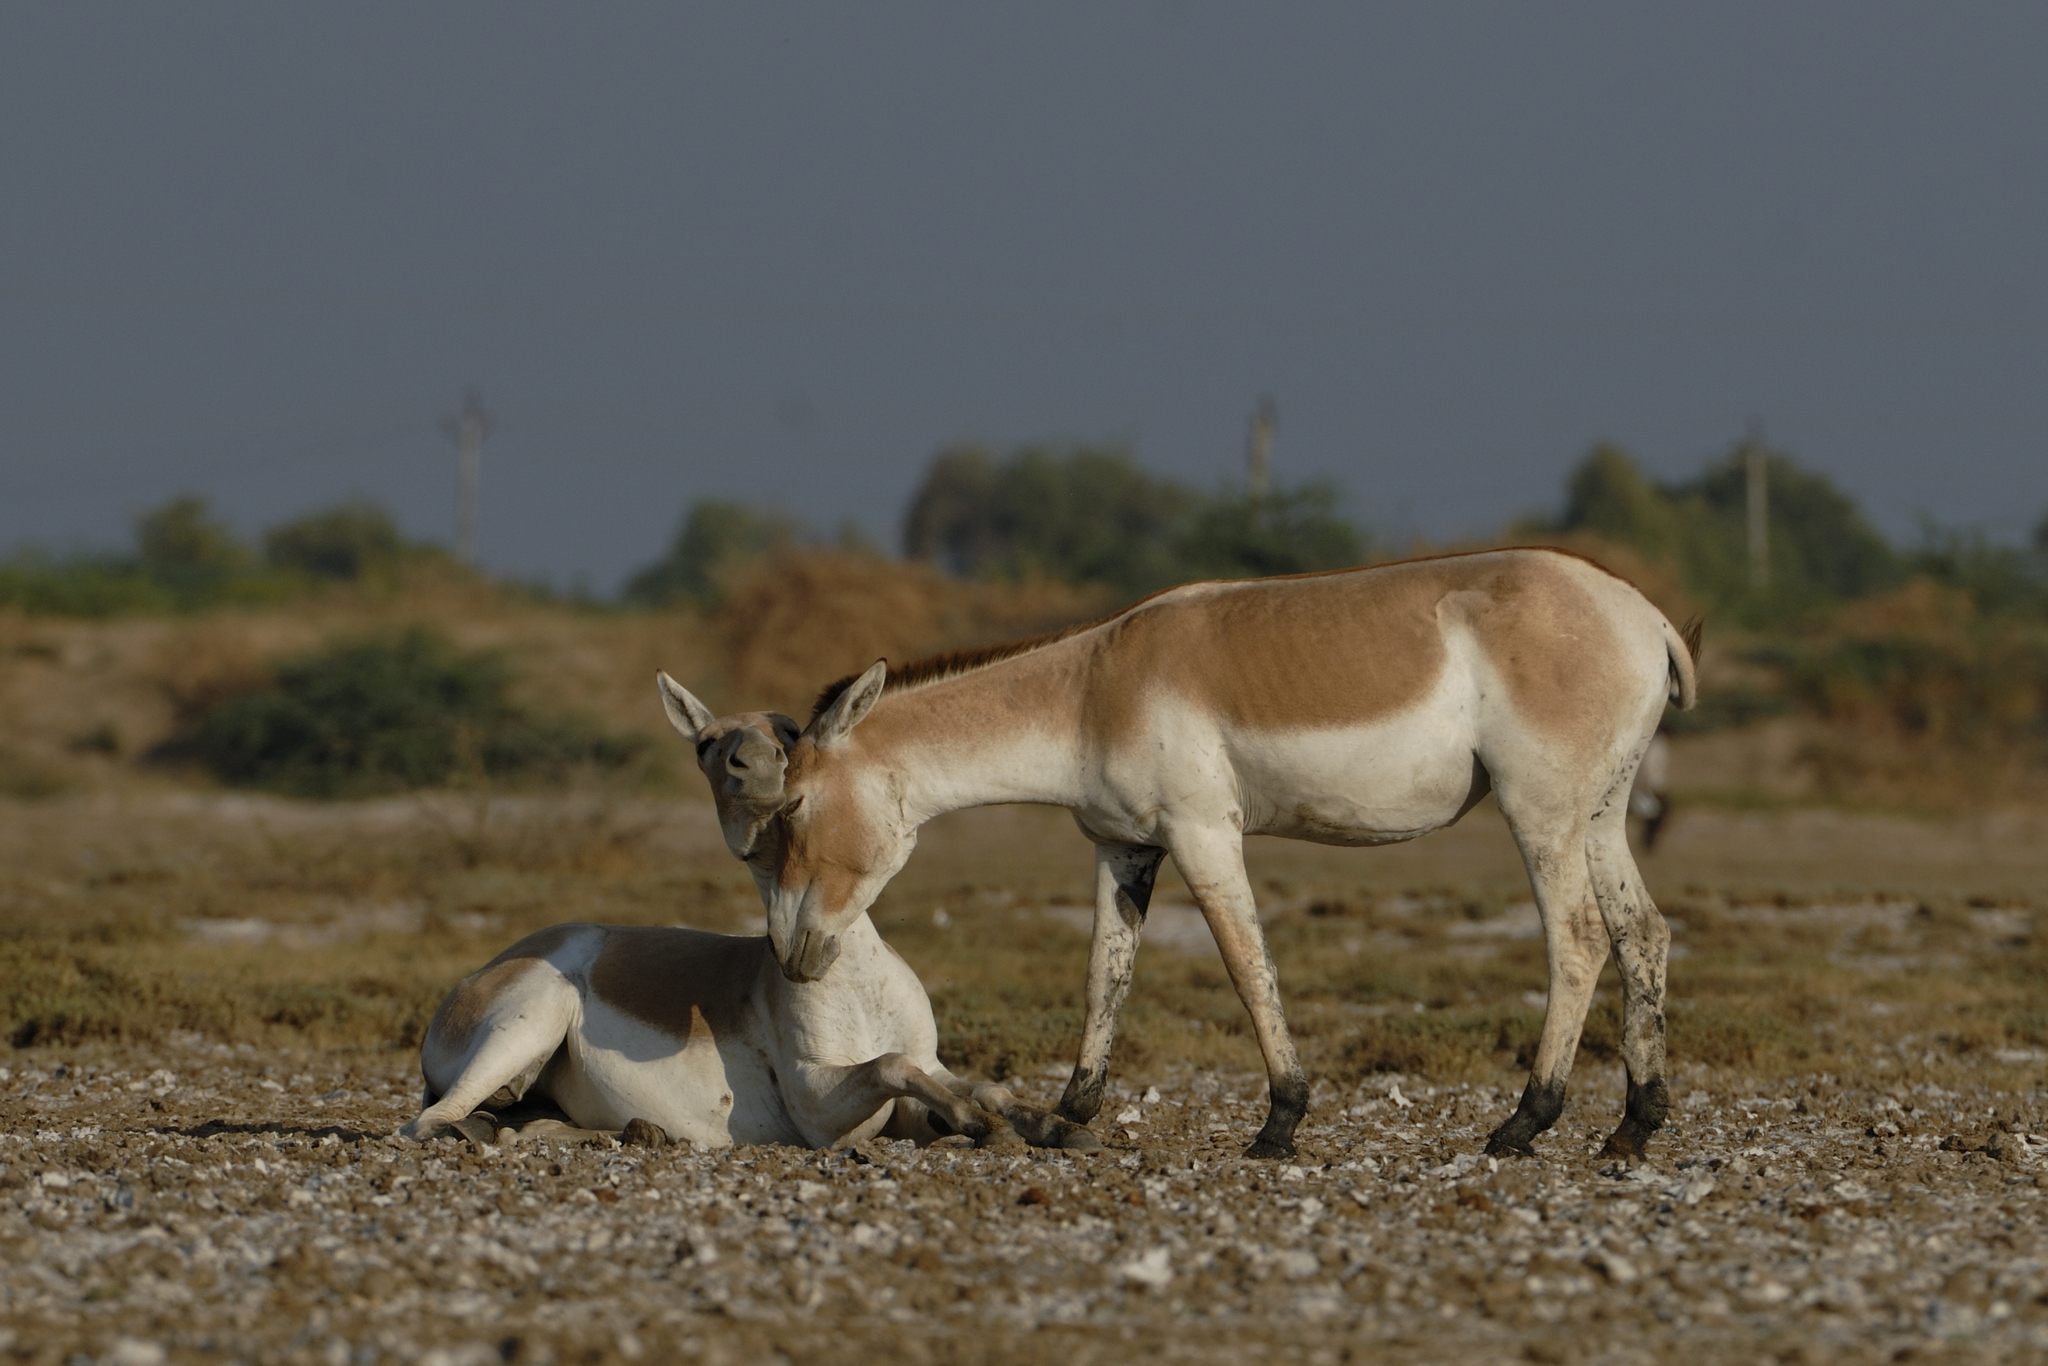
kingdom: Animalia
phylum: Chordata
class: Mammalia
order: Perissodactyla
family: Equidae
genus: Equus
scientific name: Equus khur
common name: Indian wild ass
